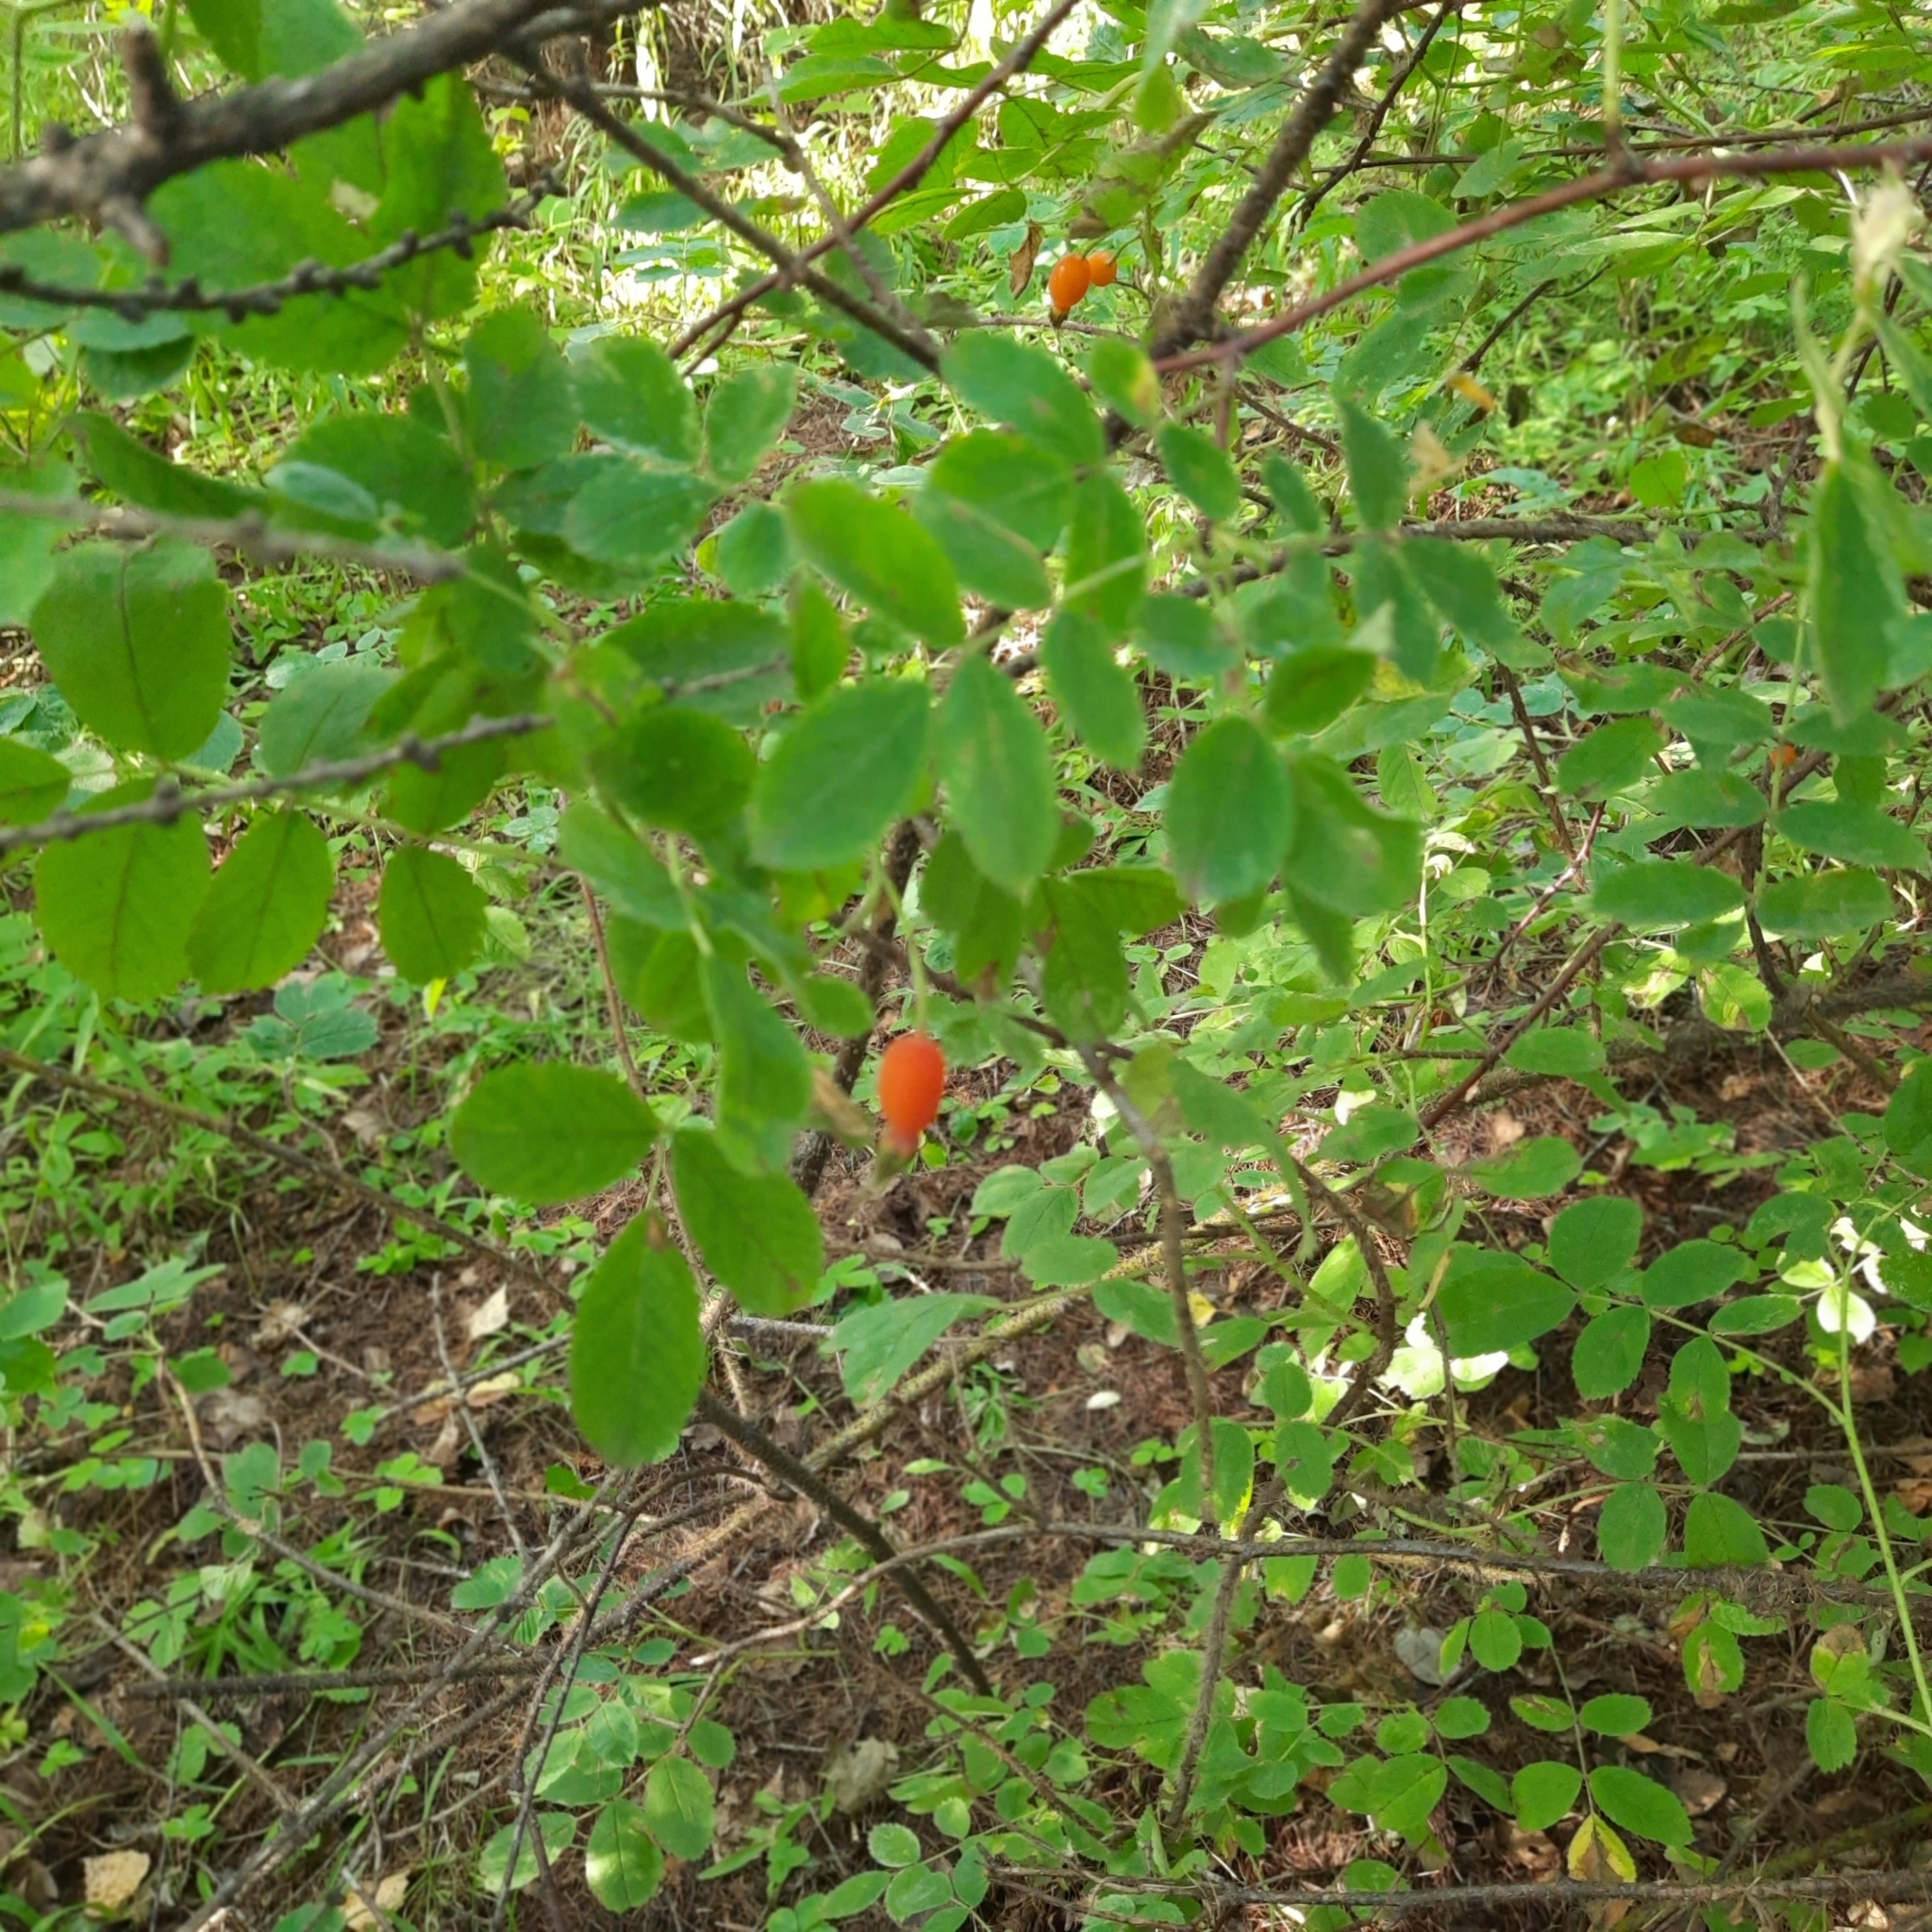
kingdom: Plantae
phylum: Tracheophyta
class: Magnoliopsida
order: Rosales
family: Rosaceae
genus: Rosa
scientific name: Rosa acicularis
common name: Prickly rose
